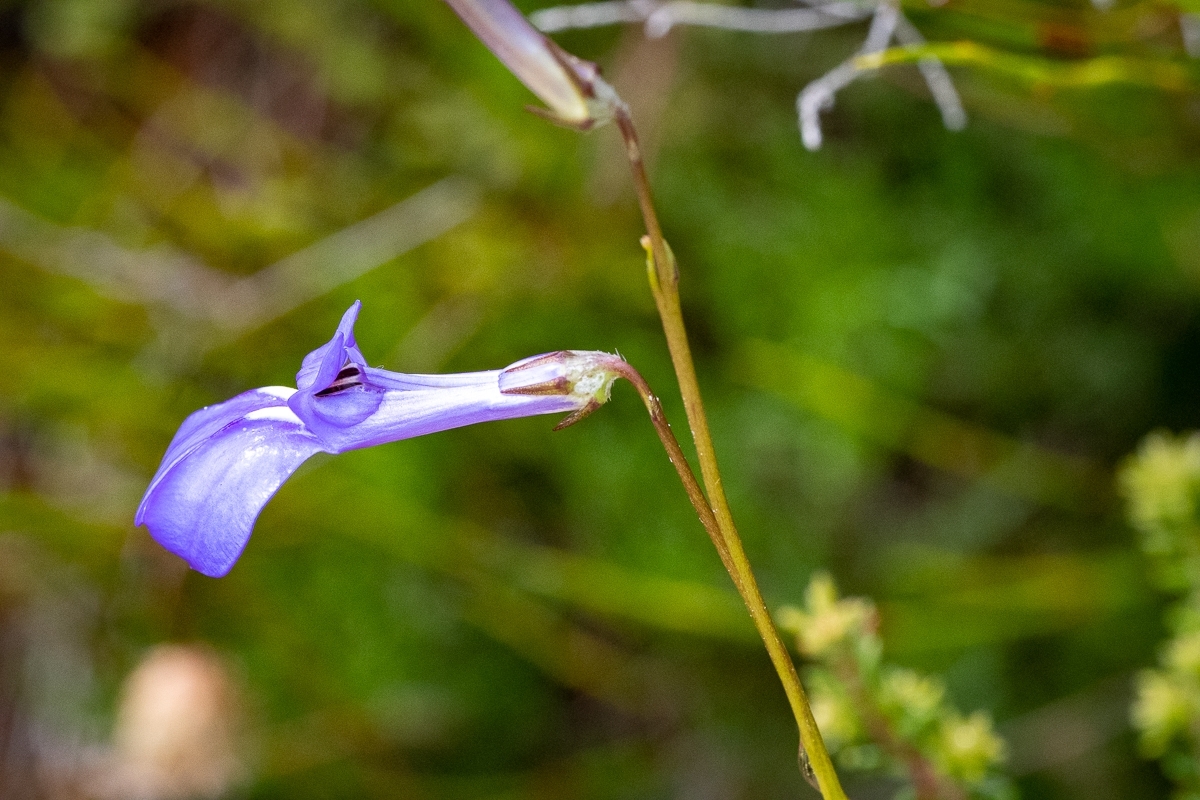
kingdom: Plantae
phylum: Tracheophyta
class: Magnoliopsida
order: Asterales
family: Campanulaceae
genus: Lobelia
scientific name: Lobelia coronopifolia
